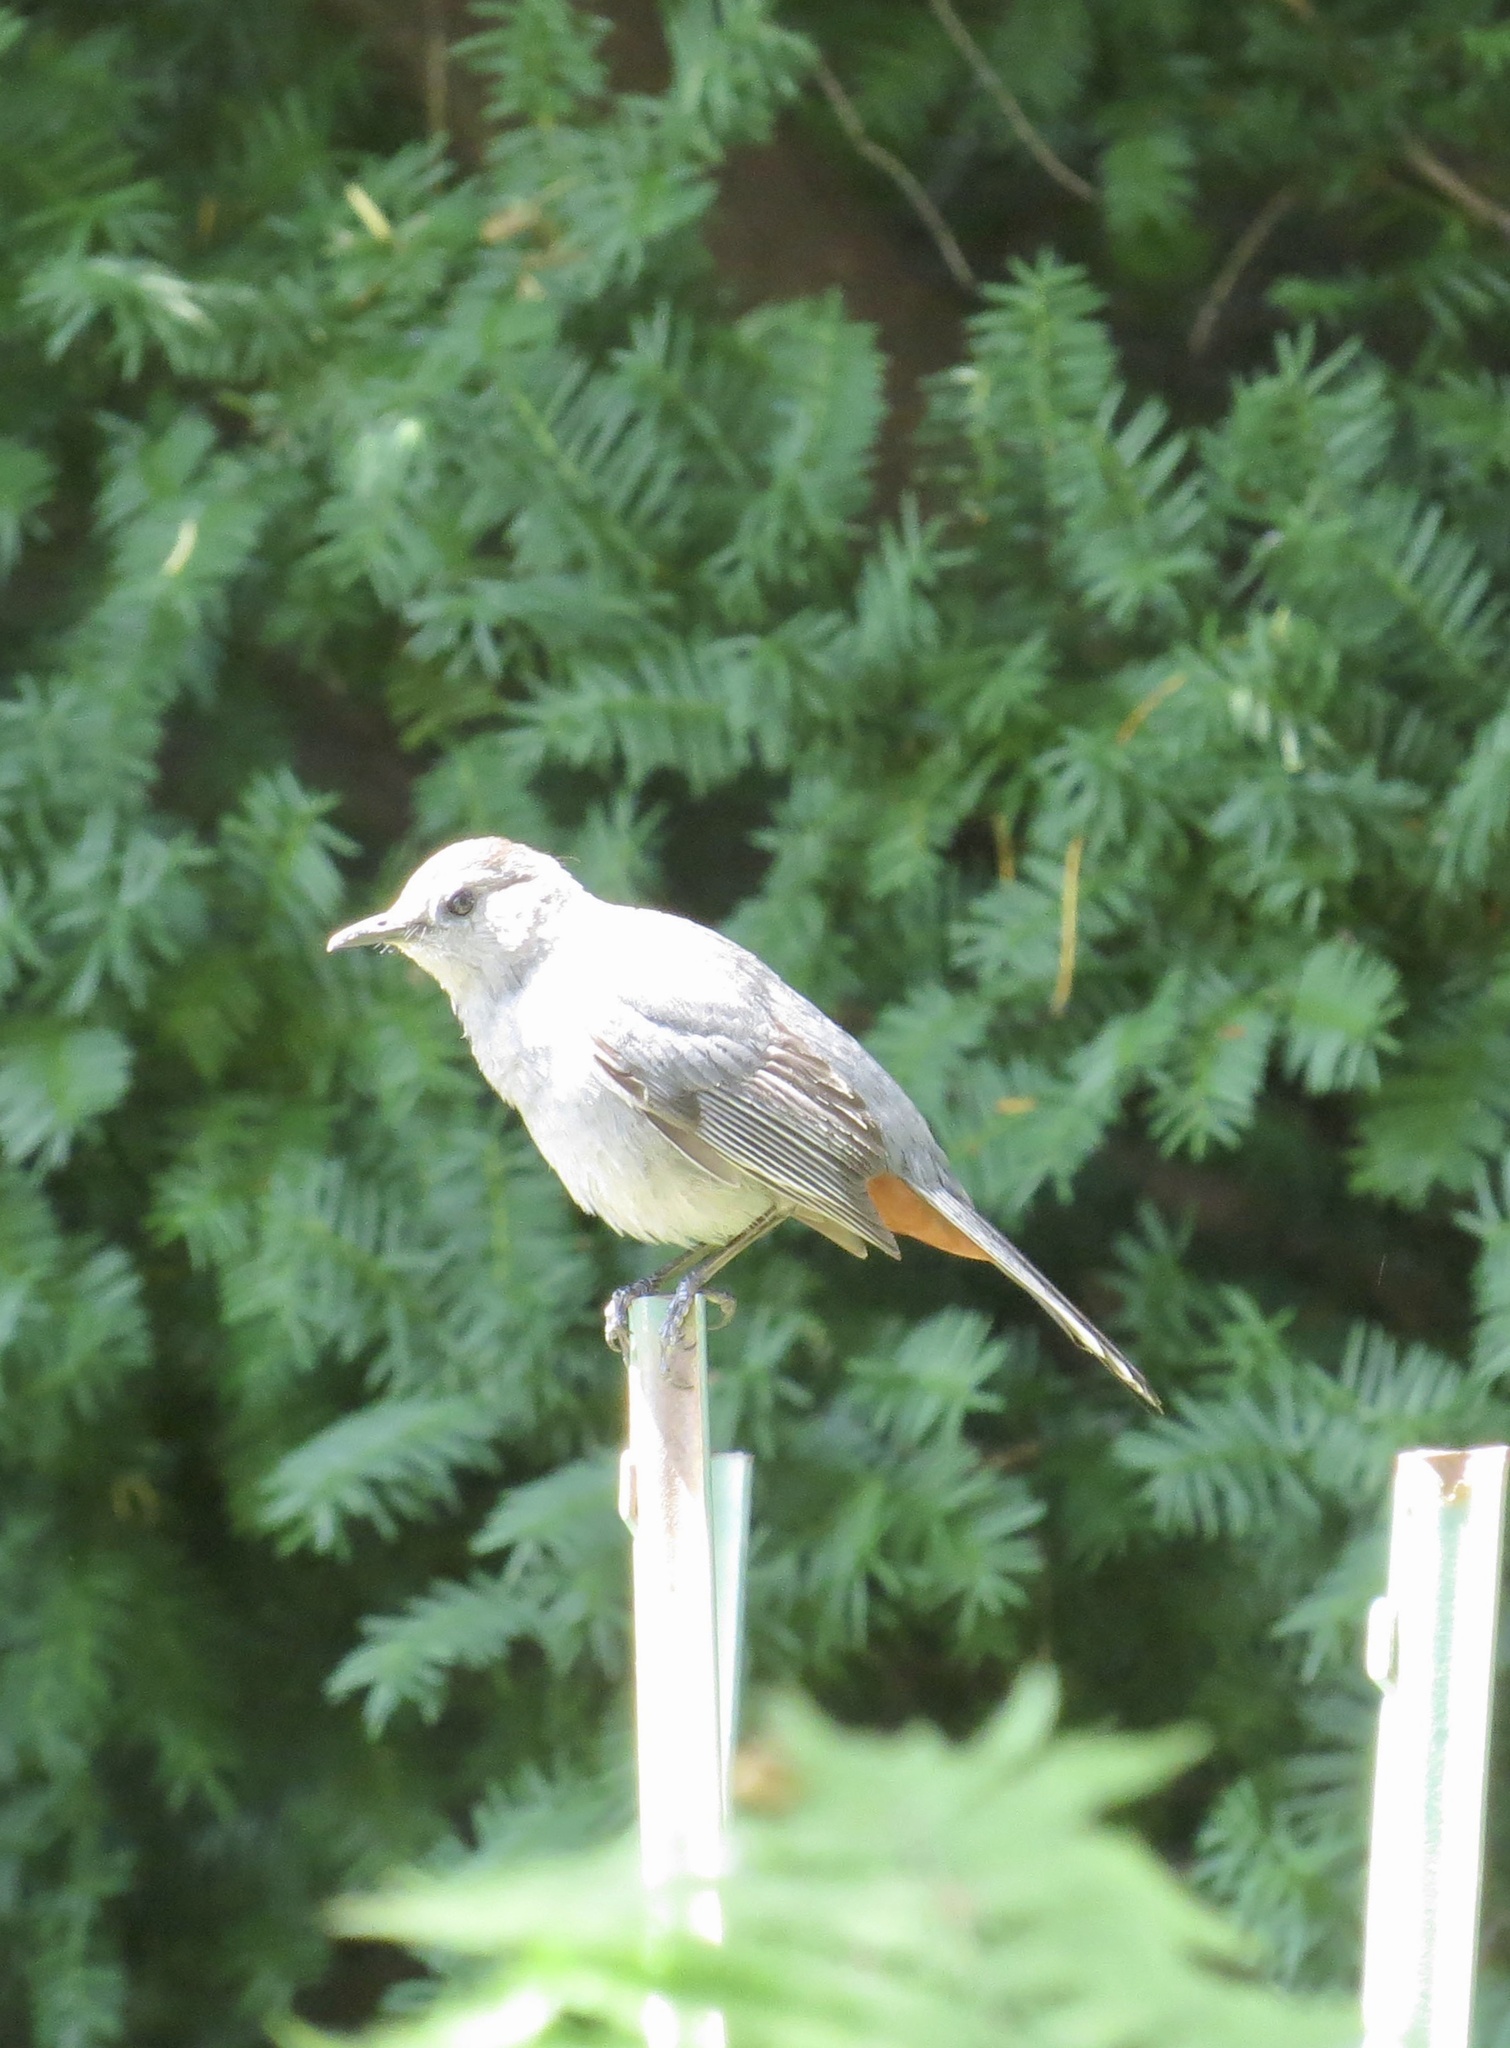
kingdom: Animalia
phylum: Chordata
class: Aves
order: Passeriformes
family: Mimidae
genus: Dumetella
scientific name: Dumetella carolinensis
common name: Gray catbird
